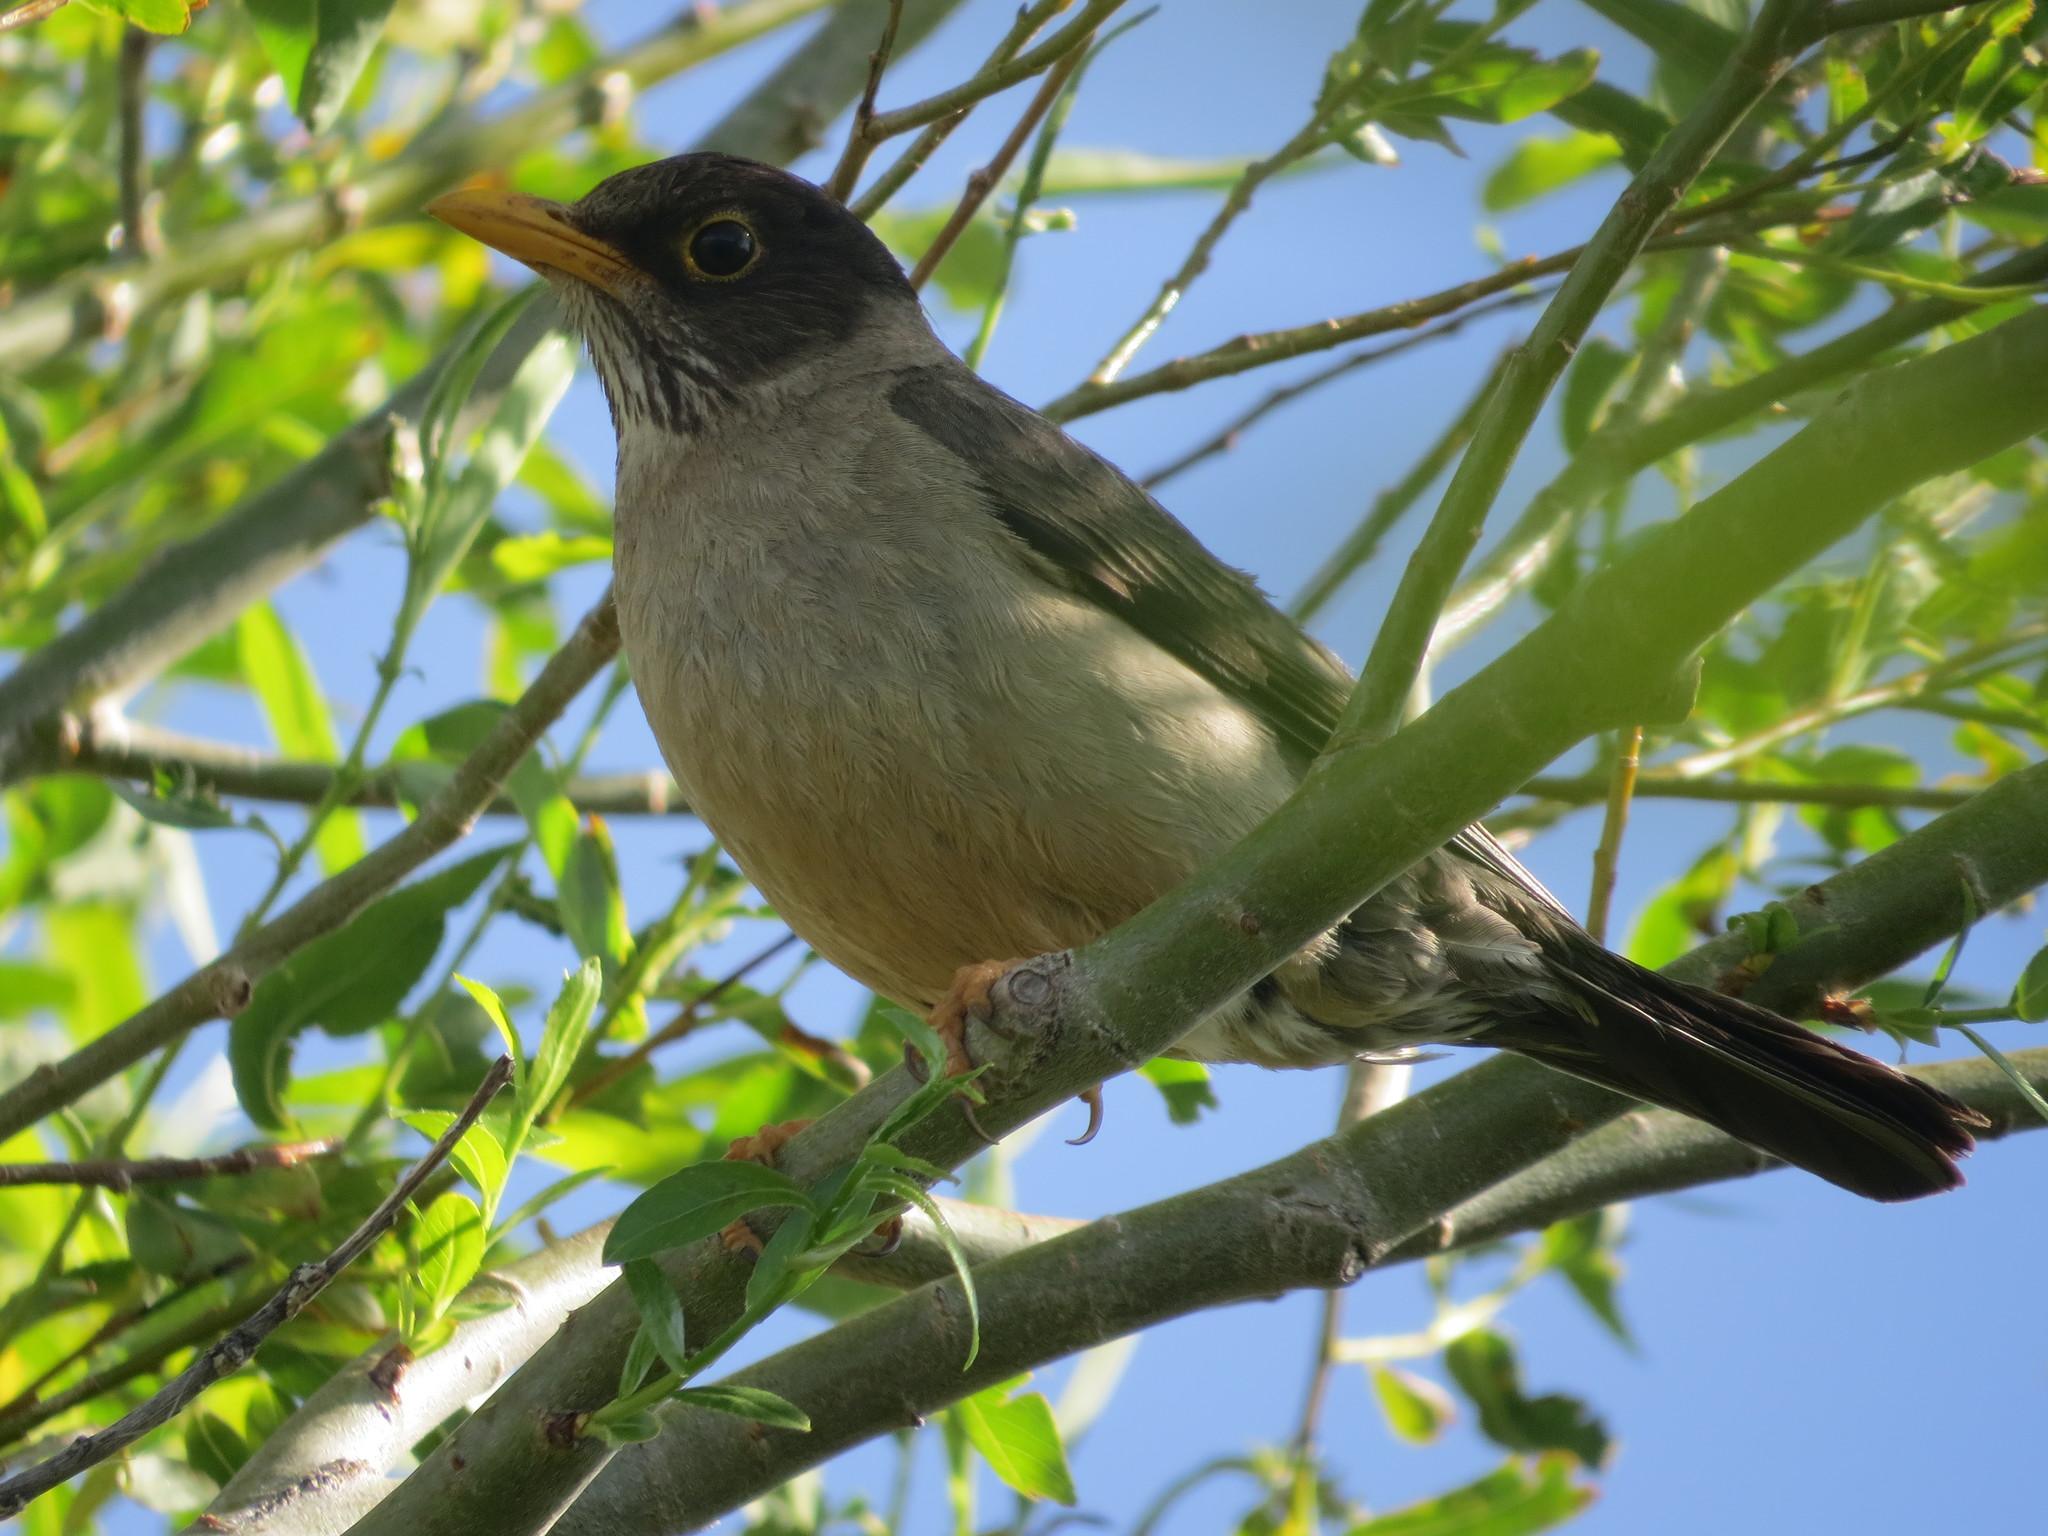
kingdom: Animalia
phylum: Chordata
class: Aves
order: Passeriformes
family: Turdidae
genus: Turdus
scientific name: Turdus falcklandii
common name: Austral thrush
